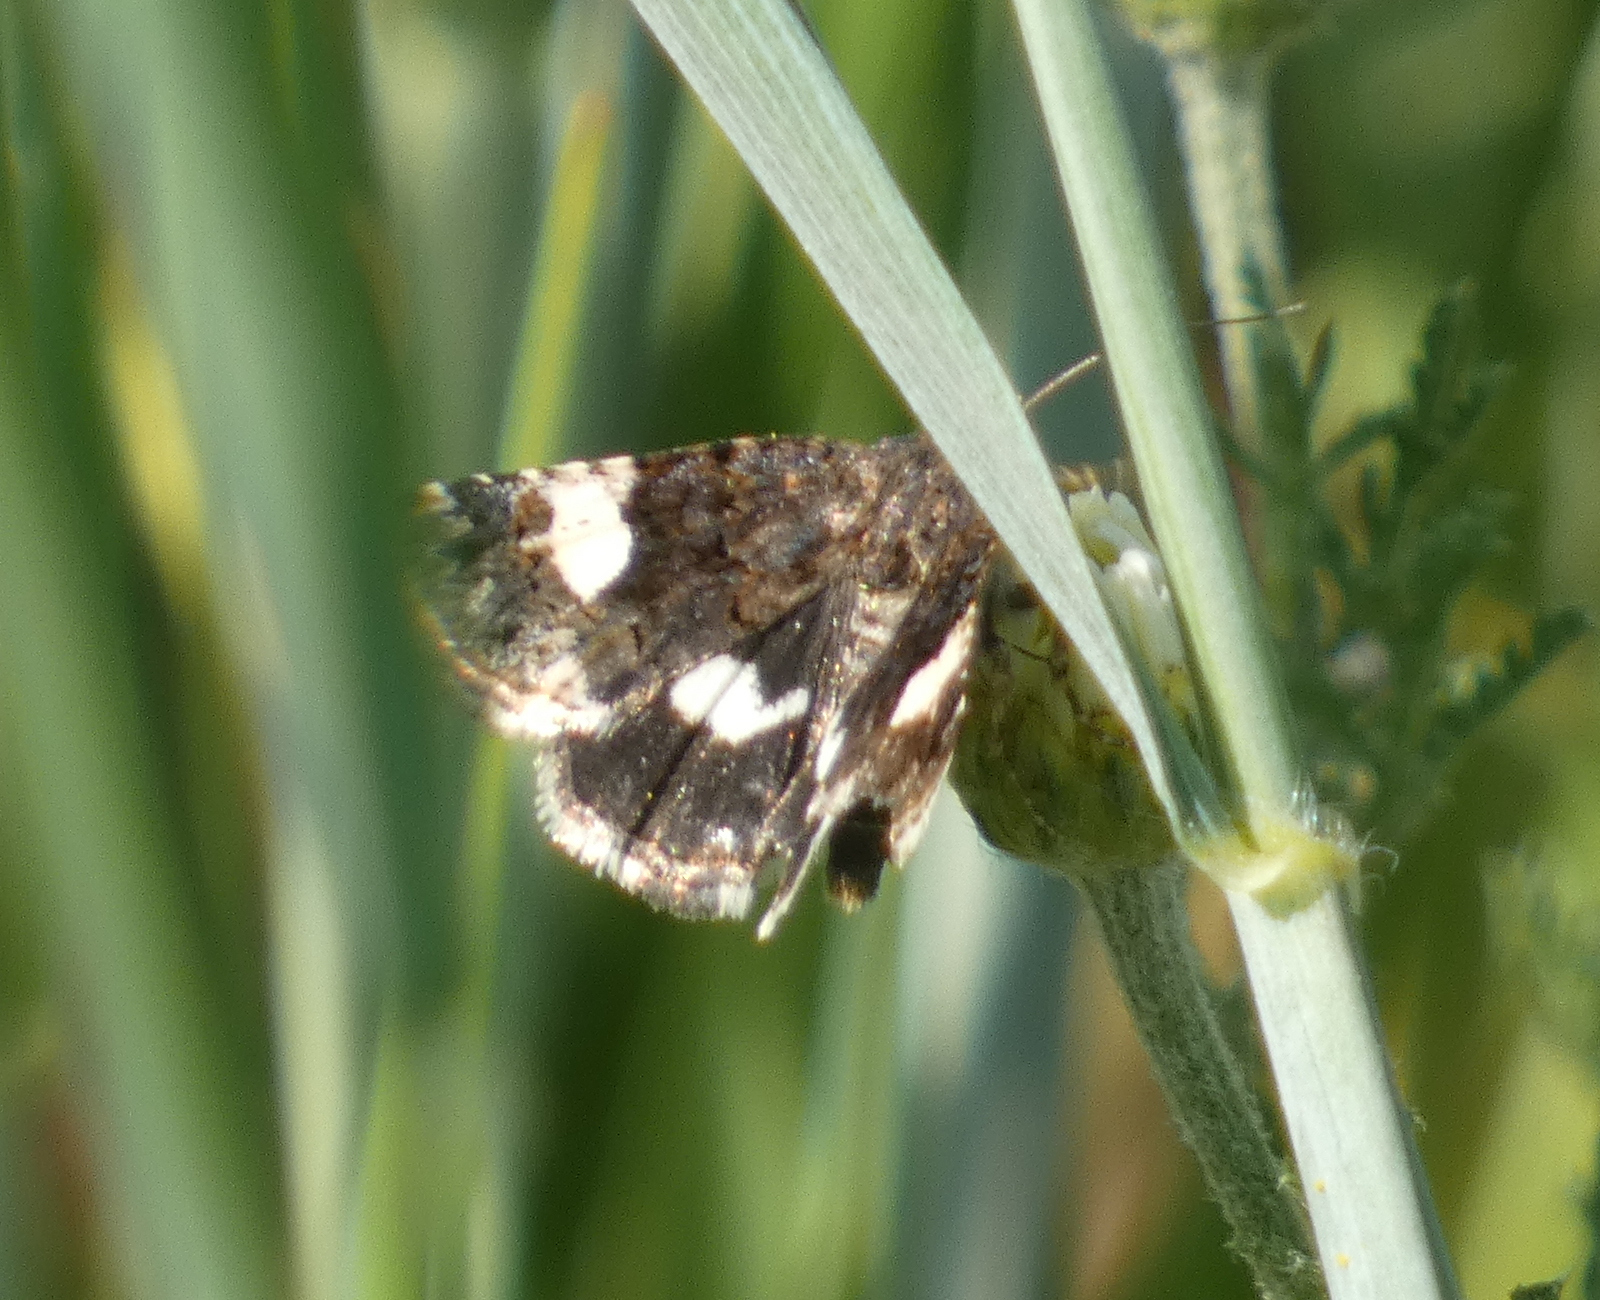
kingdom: Animalia
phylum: Arthropoda
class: Insecta
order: Lepidoptera
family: Erebidae
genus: Tyta
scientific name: Tyta luctuosa
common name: Four-spotted
